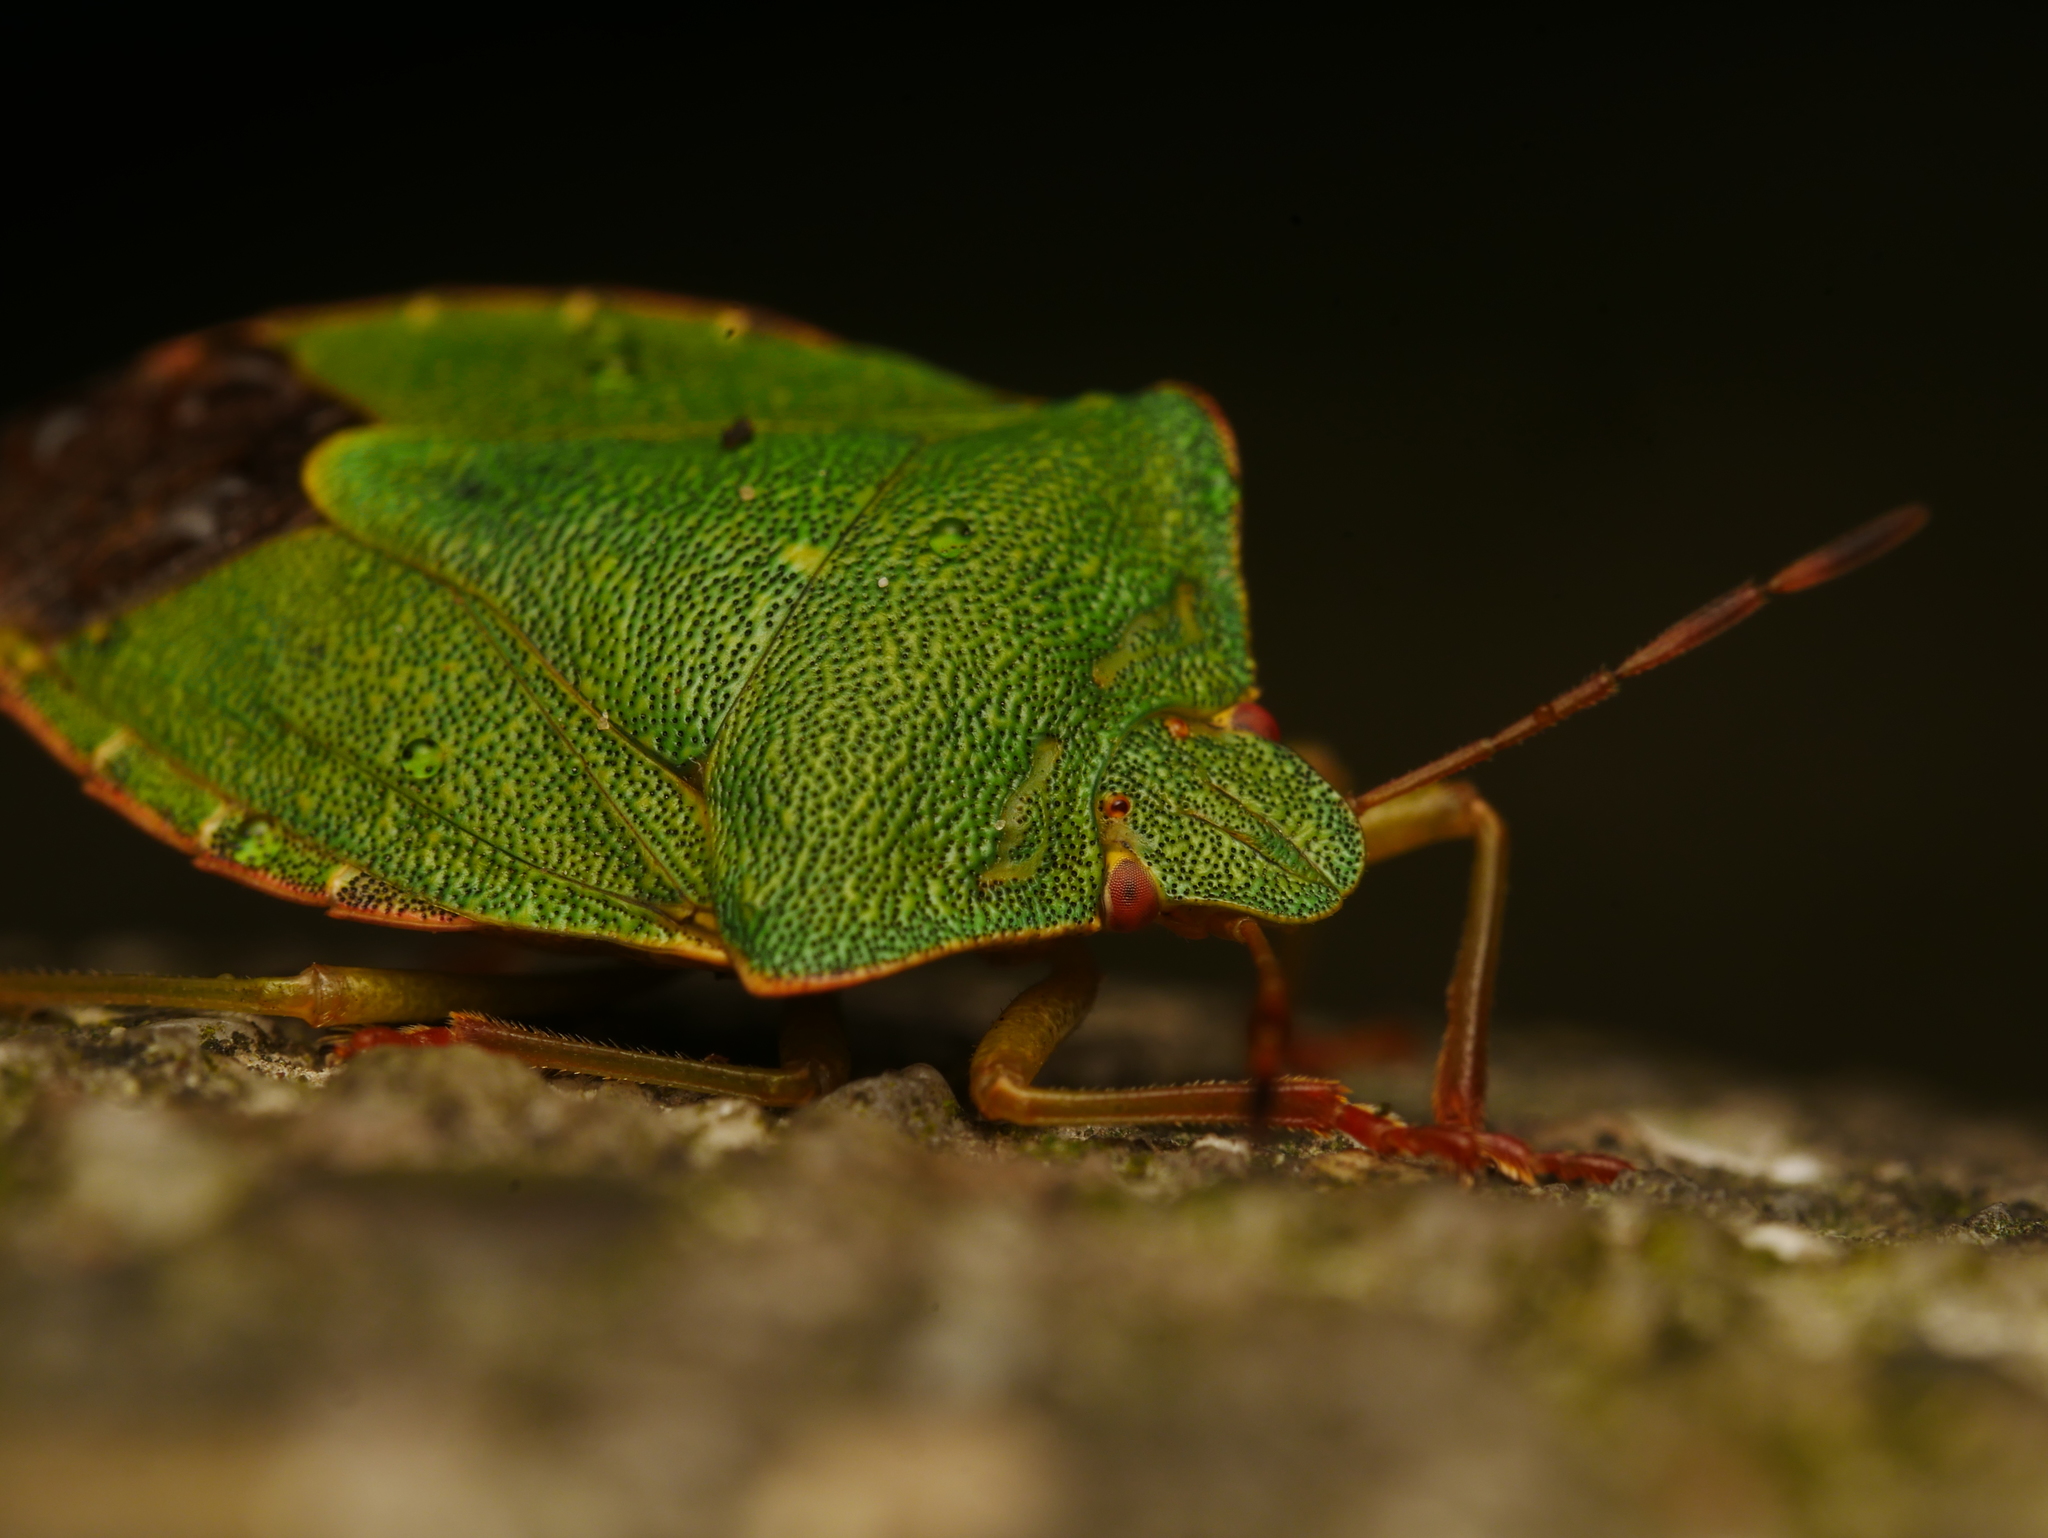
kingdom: Animalia
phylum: Arthropoda
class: Insecta
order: Hemiptera
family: Pentatomidae
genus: Palomena
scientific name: Palomena prasina
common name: Green shieldbug
